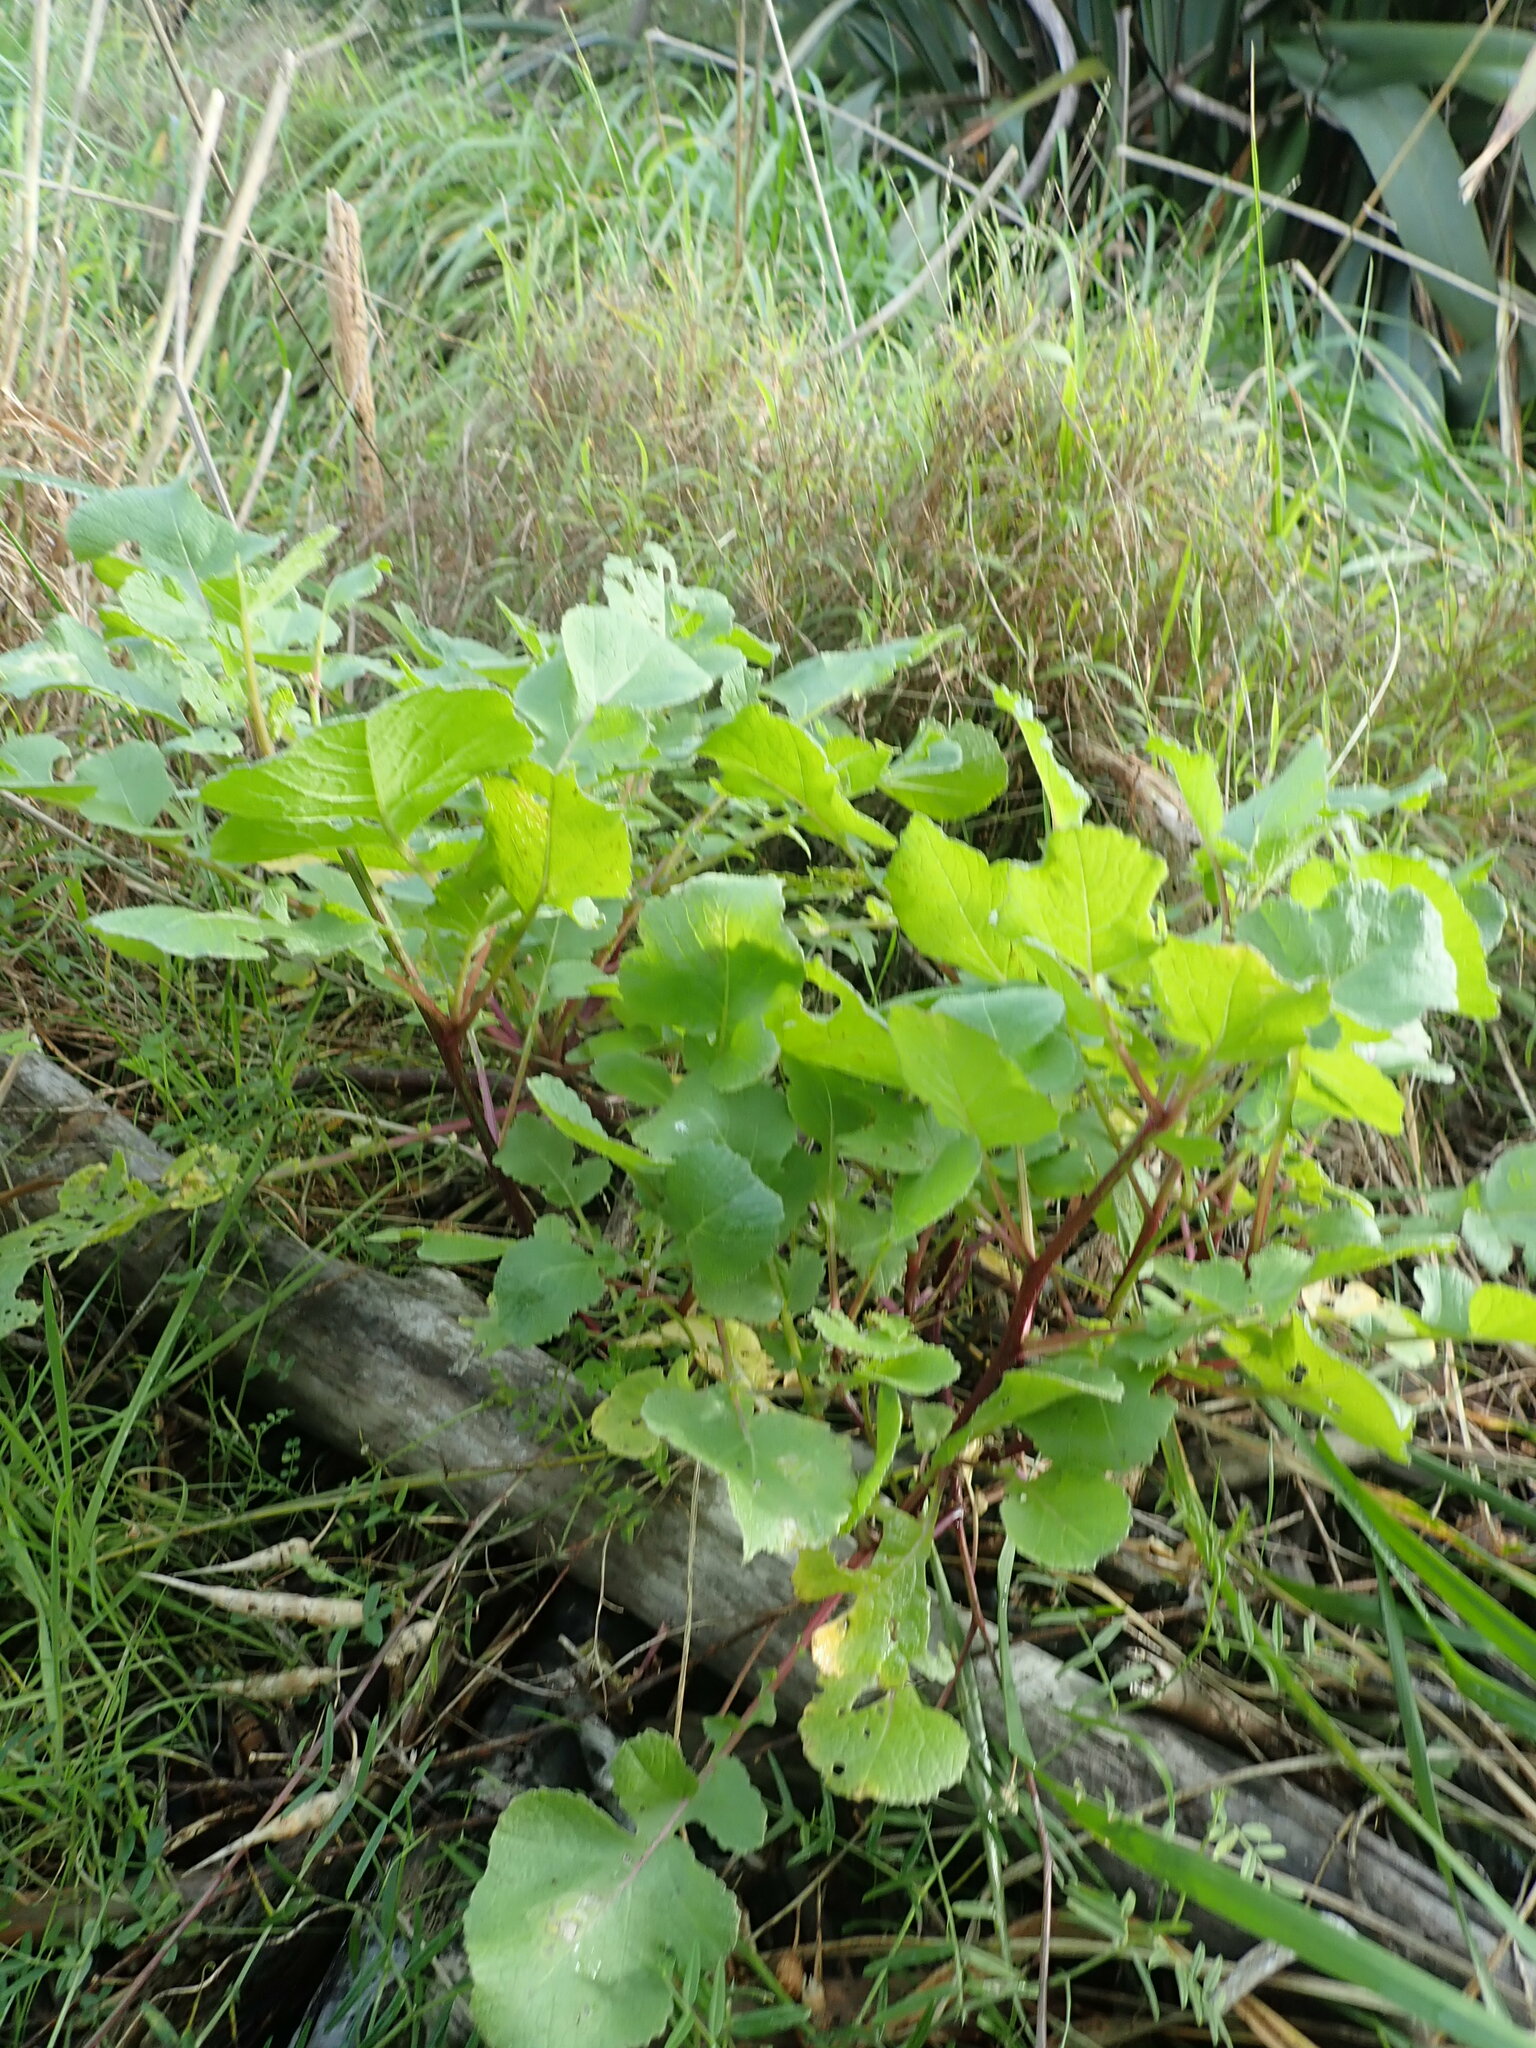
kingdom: Plantae
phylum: Tracheophyta
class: Magnoliopsida
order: Brassicales
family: Brassicaceae
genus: Raphanus
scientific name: Raphanus raphanistrum
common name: Wild radish
